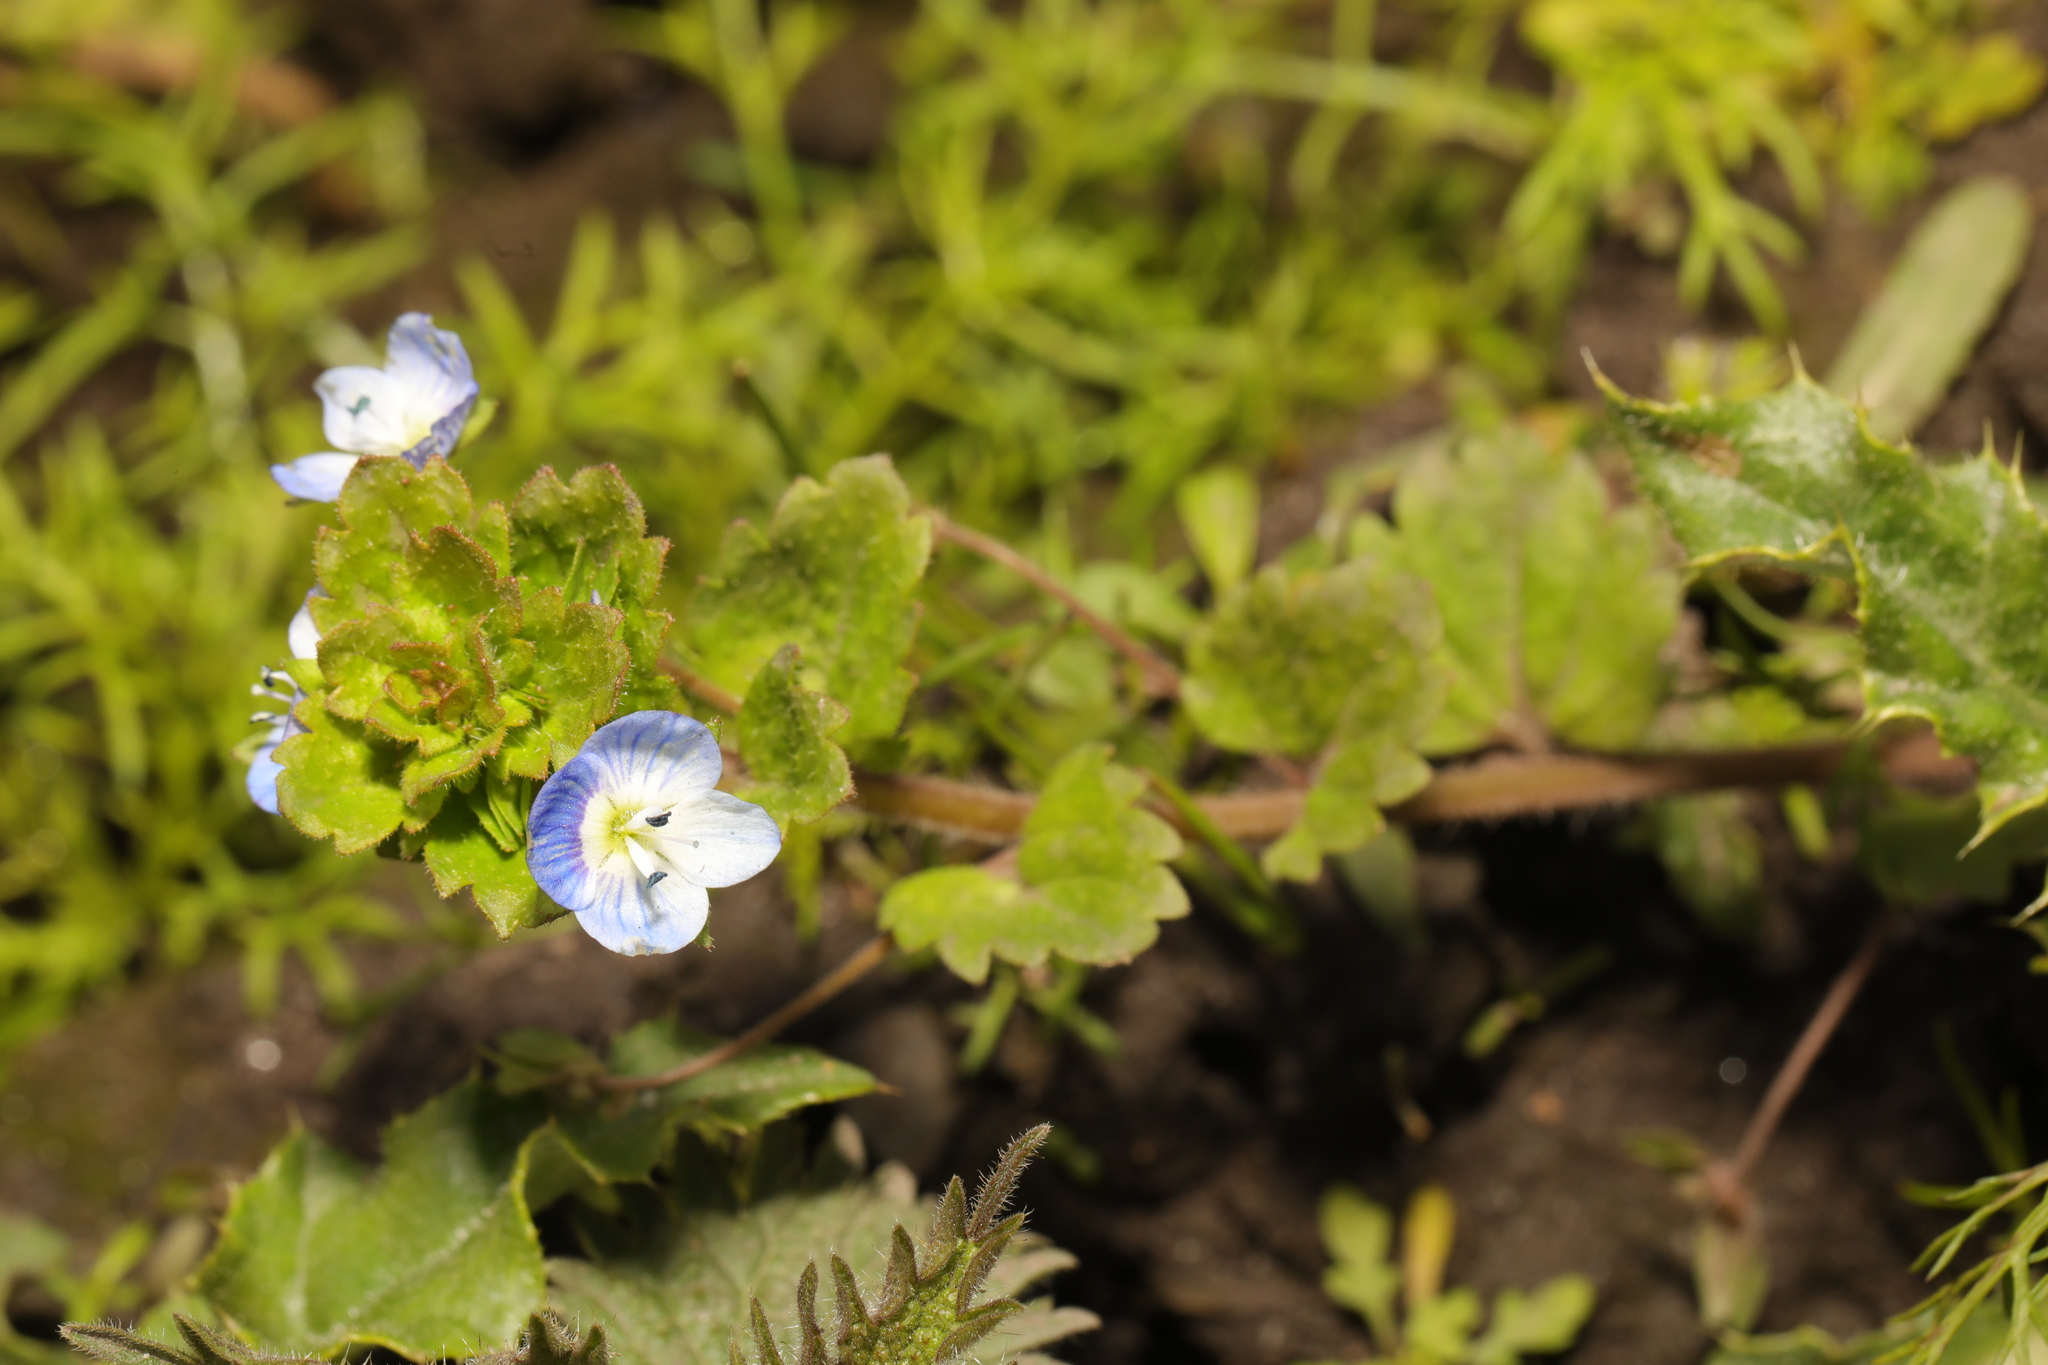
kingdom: Plantae
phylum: Tracheophyta
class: Magnoliopsida
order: Lamiales
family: Plantaginaceae
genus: Veronica
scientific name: Veronica persica
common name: Common field-speedwell
